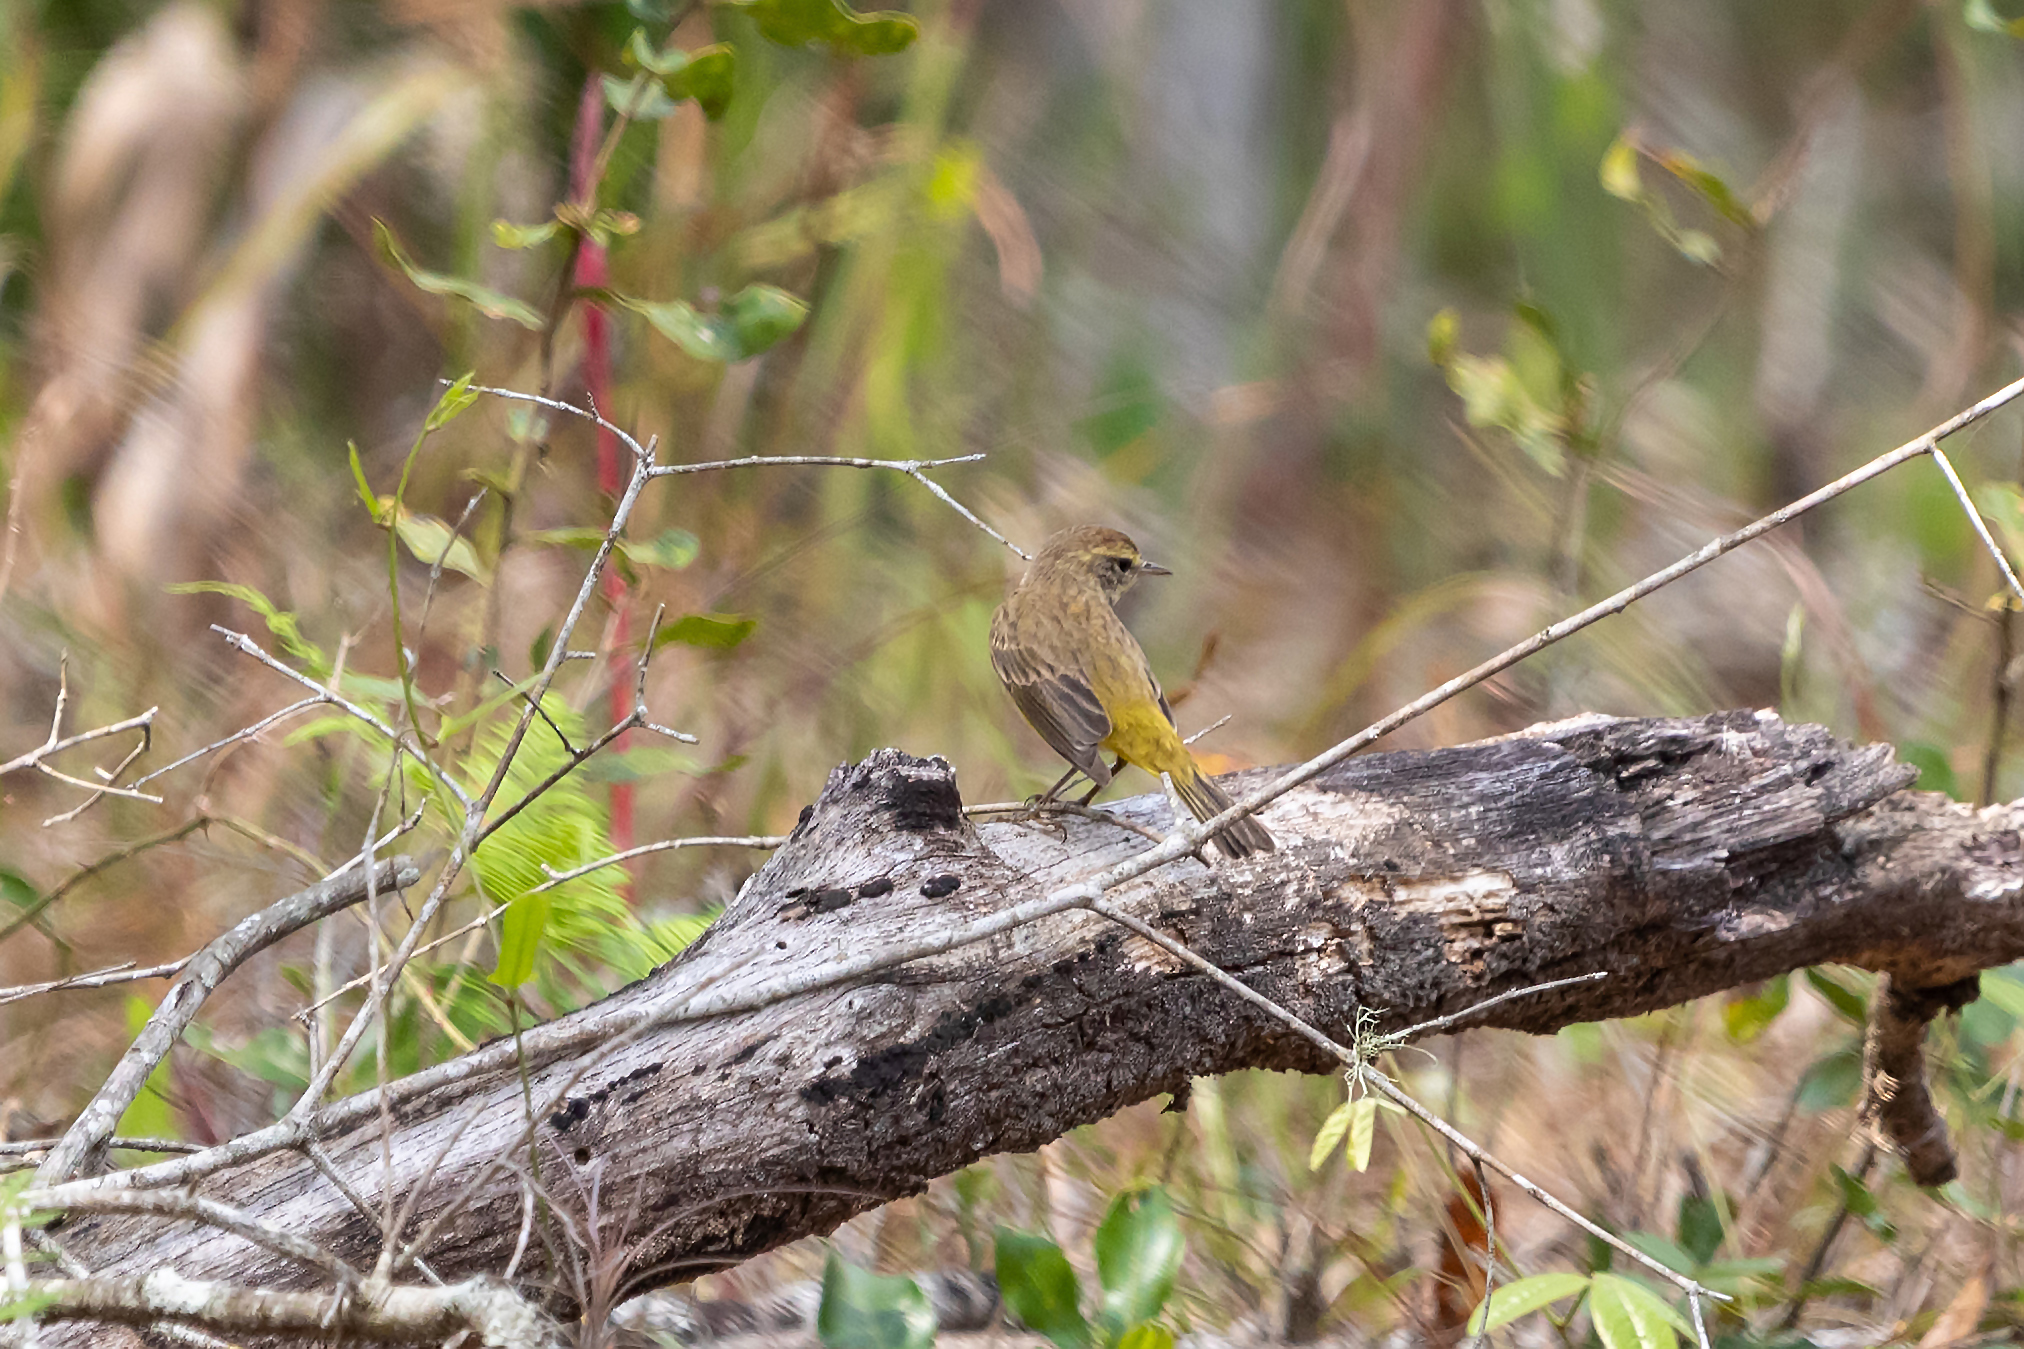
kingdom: Animalia
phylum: Chordata
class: Aves
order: Passeriformes
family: Parulidae
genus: Setophaga
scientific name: Setophaga palmarum
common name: Palm warbler
